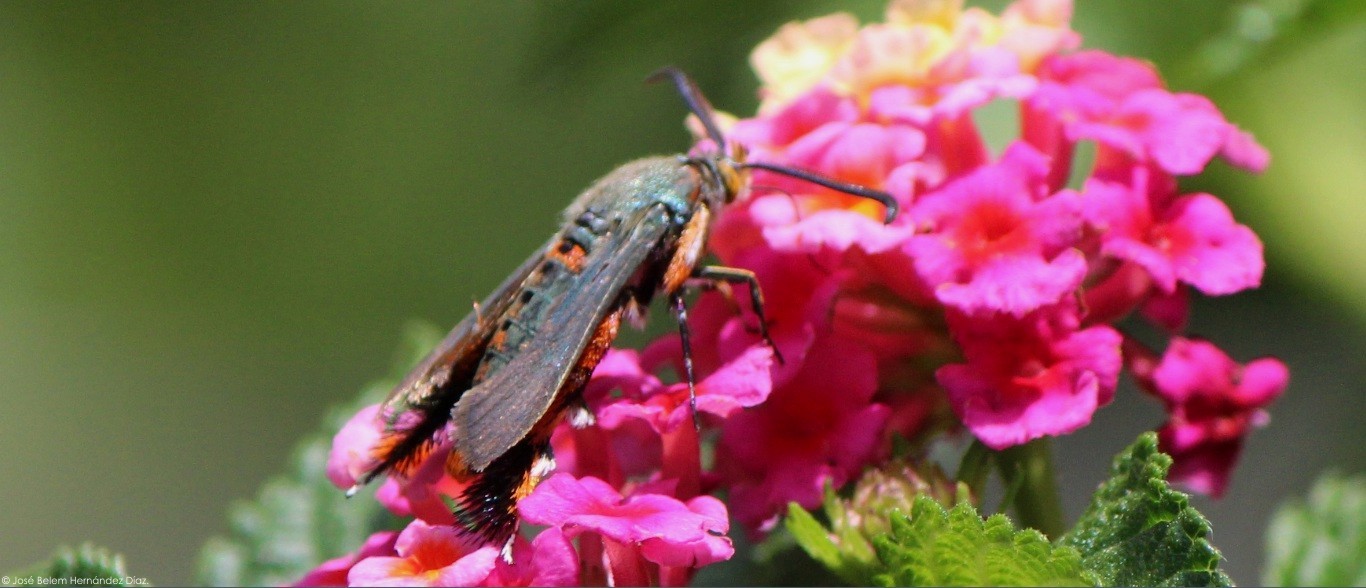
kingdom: Animalia
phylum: Arthropoda
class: Insecta
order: Lepidoptera
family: Sesiidae
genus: Eichlinia
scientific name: Eichlinia calabaza
